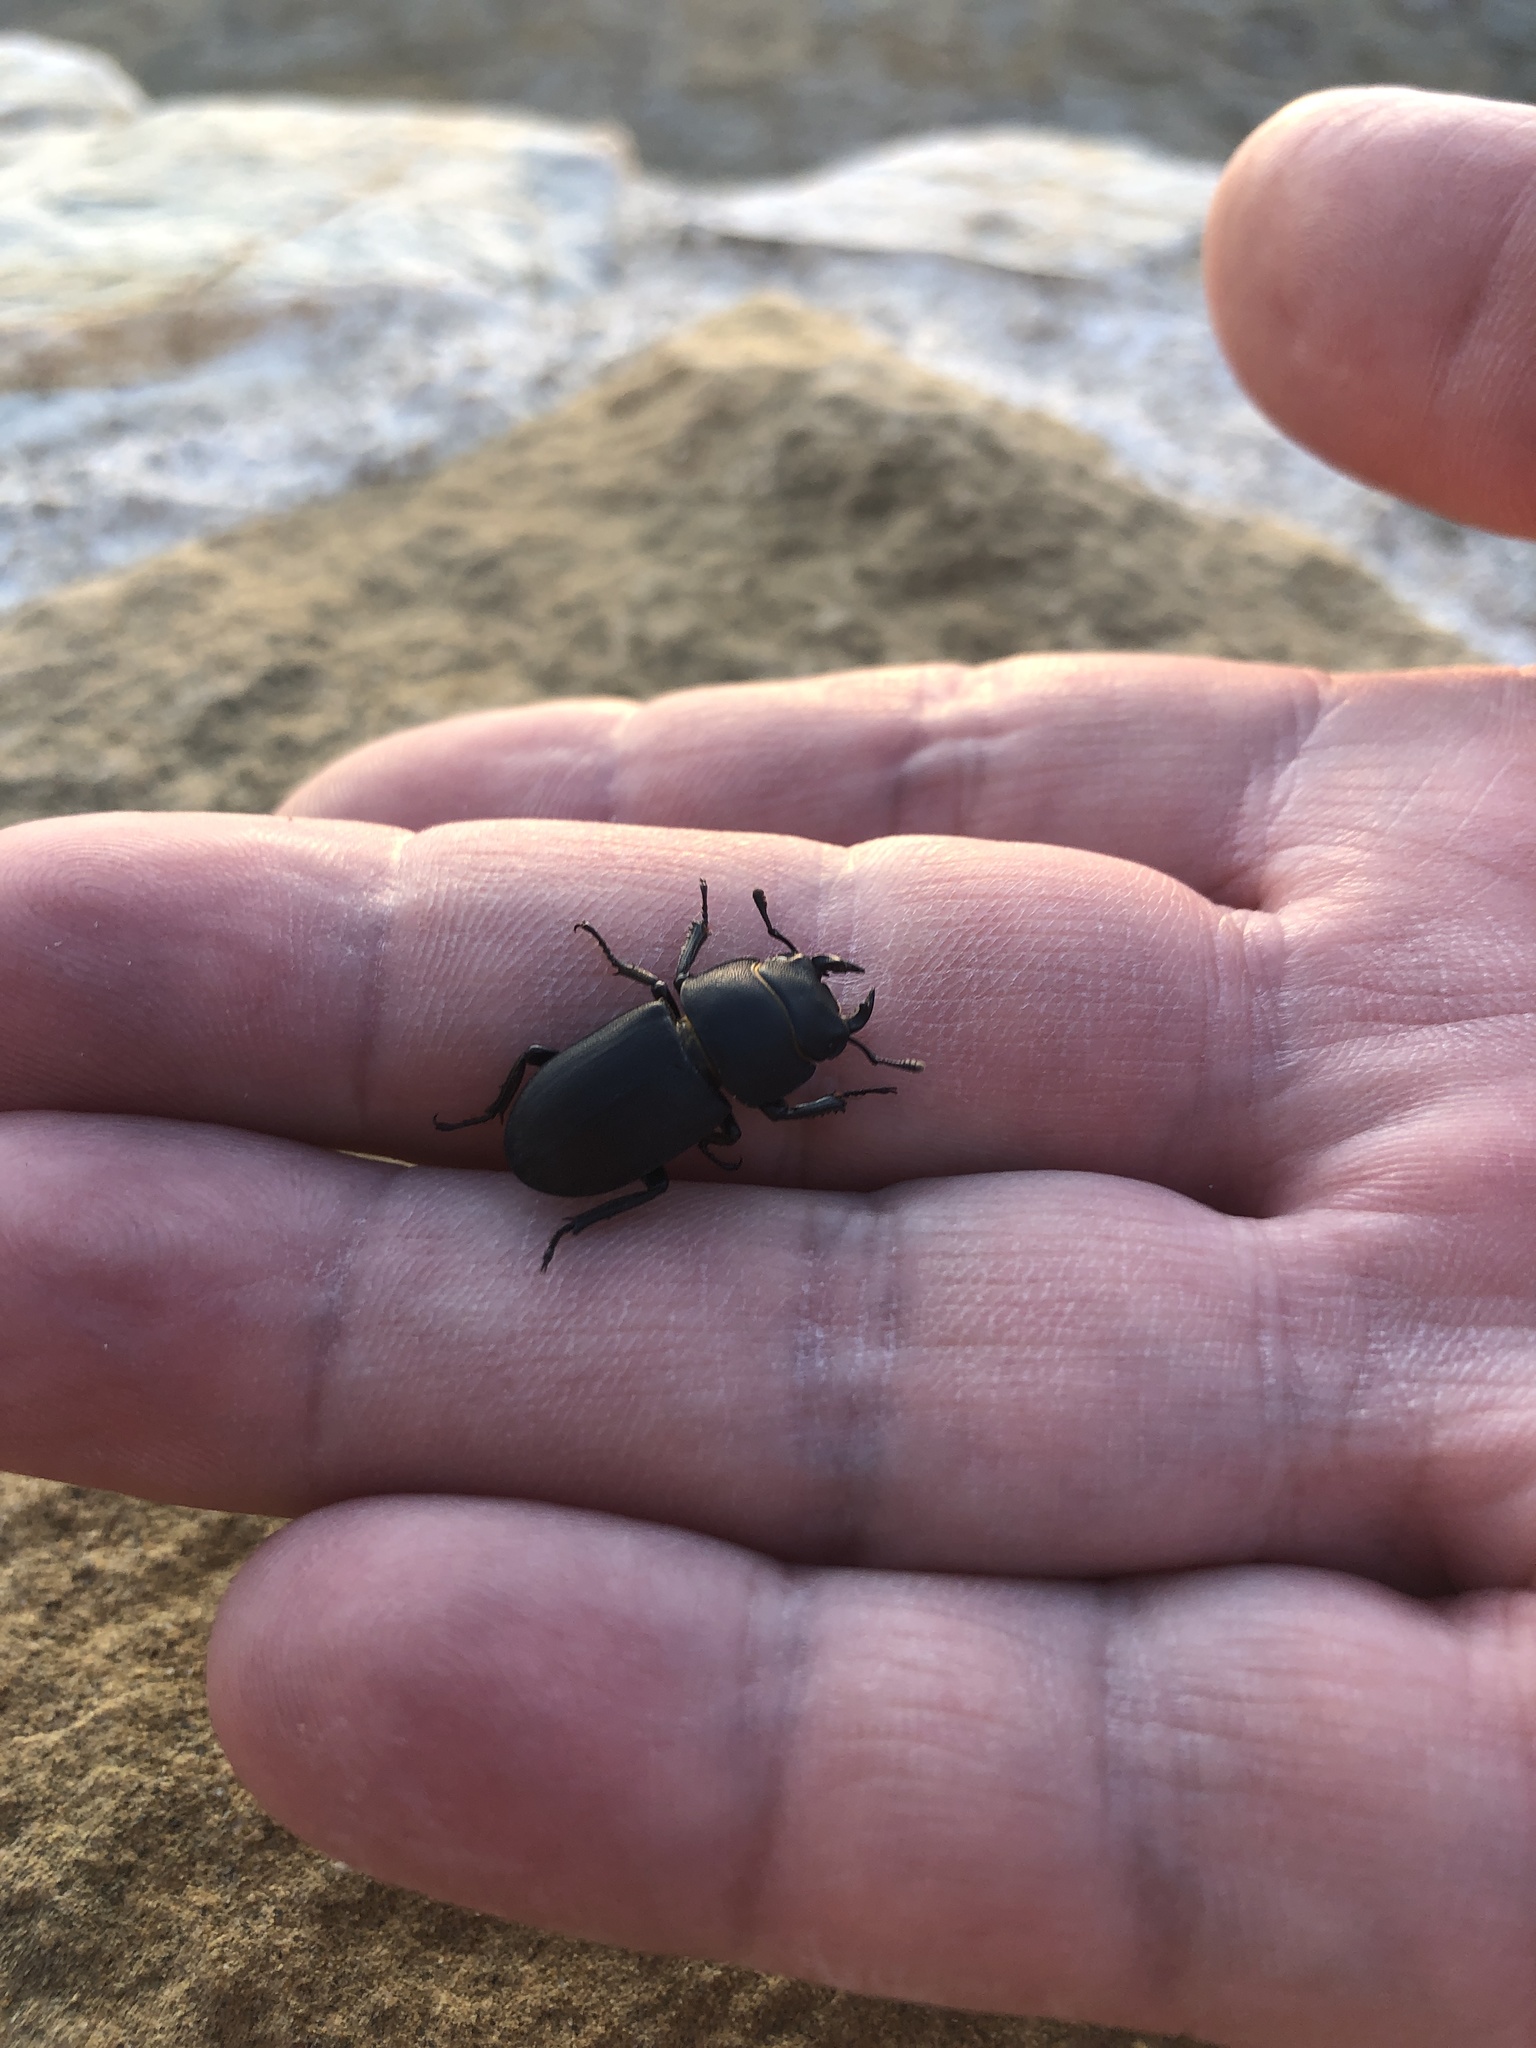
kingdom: Animalia
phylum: Arthropoda
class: Insecta
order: Coleoptera
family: Lucanidae
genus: Dorcus
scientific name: Dorcus parallelipipedus
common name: Lesser stag beetle
